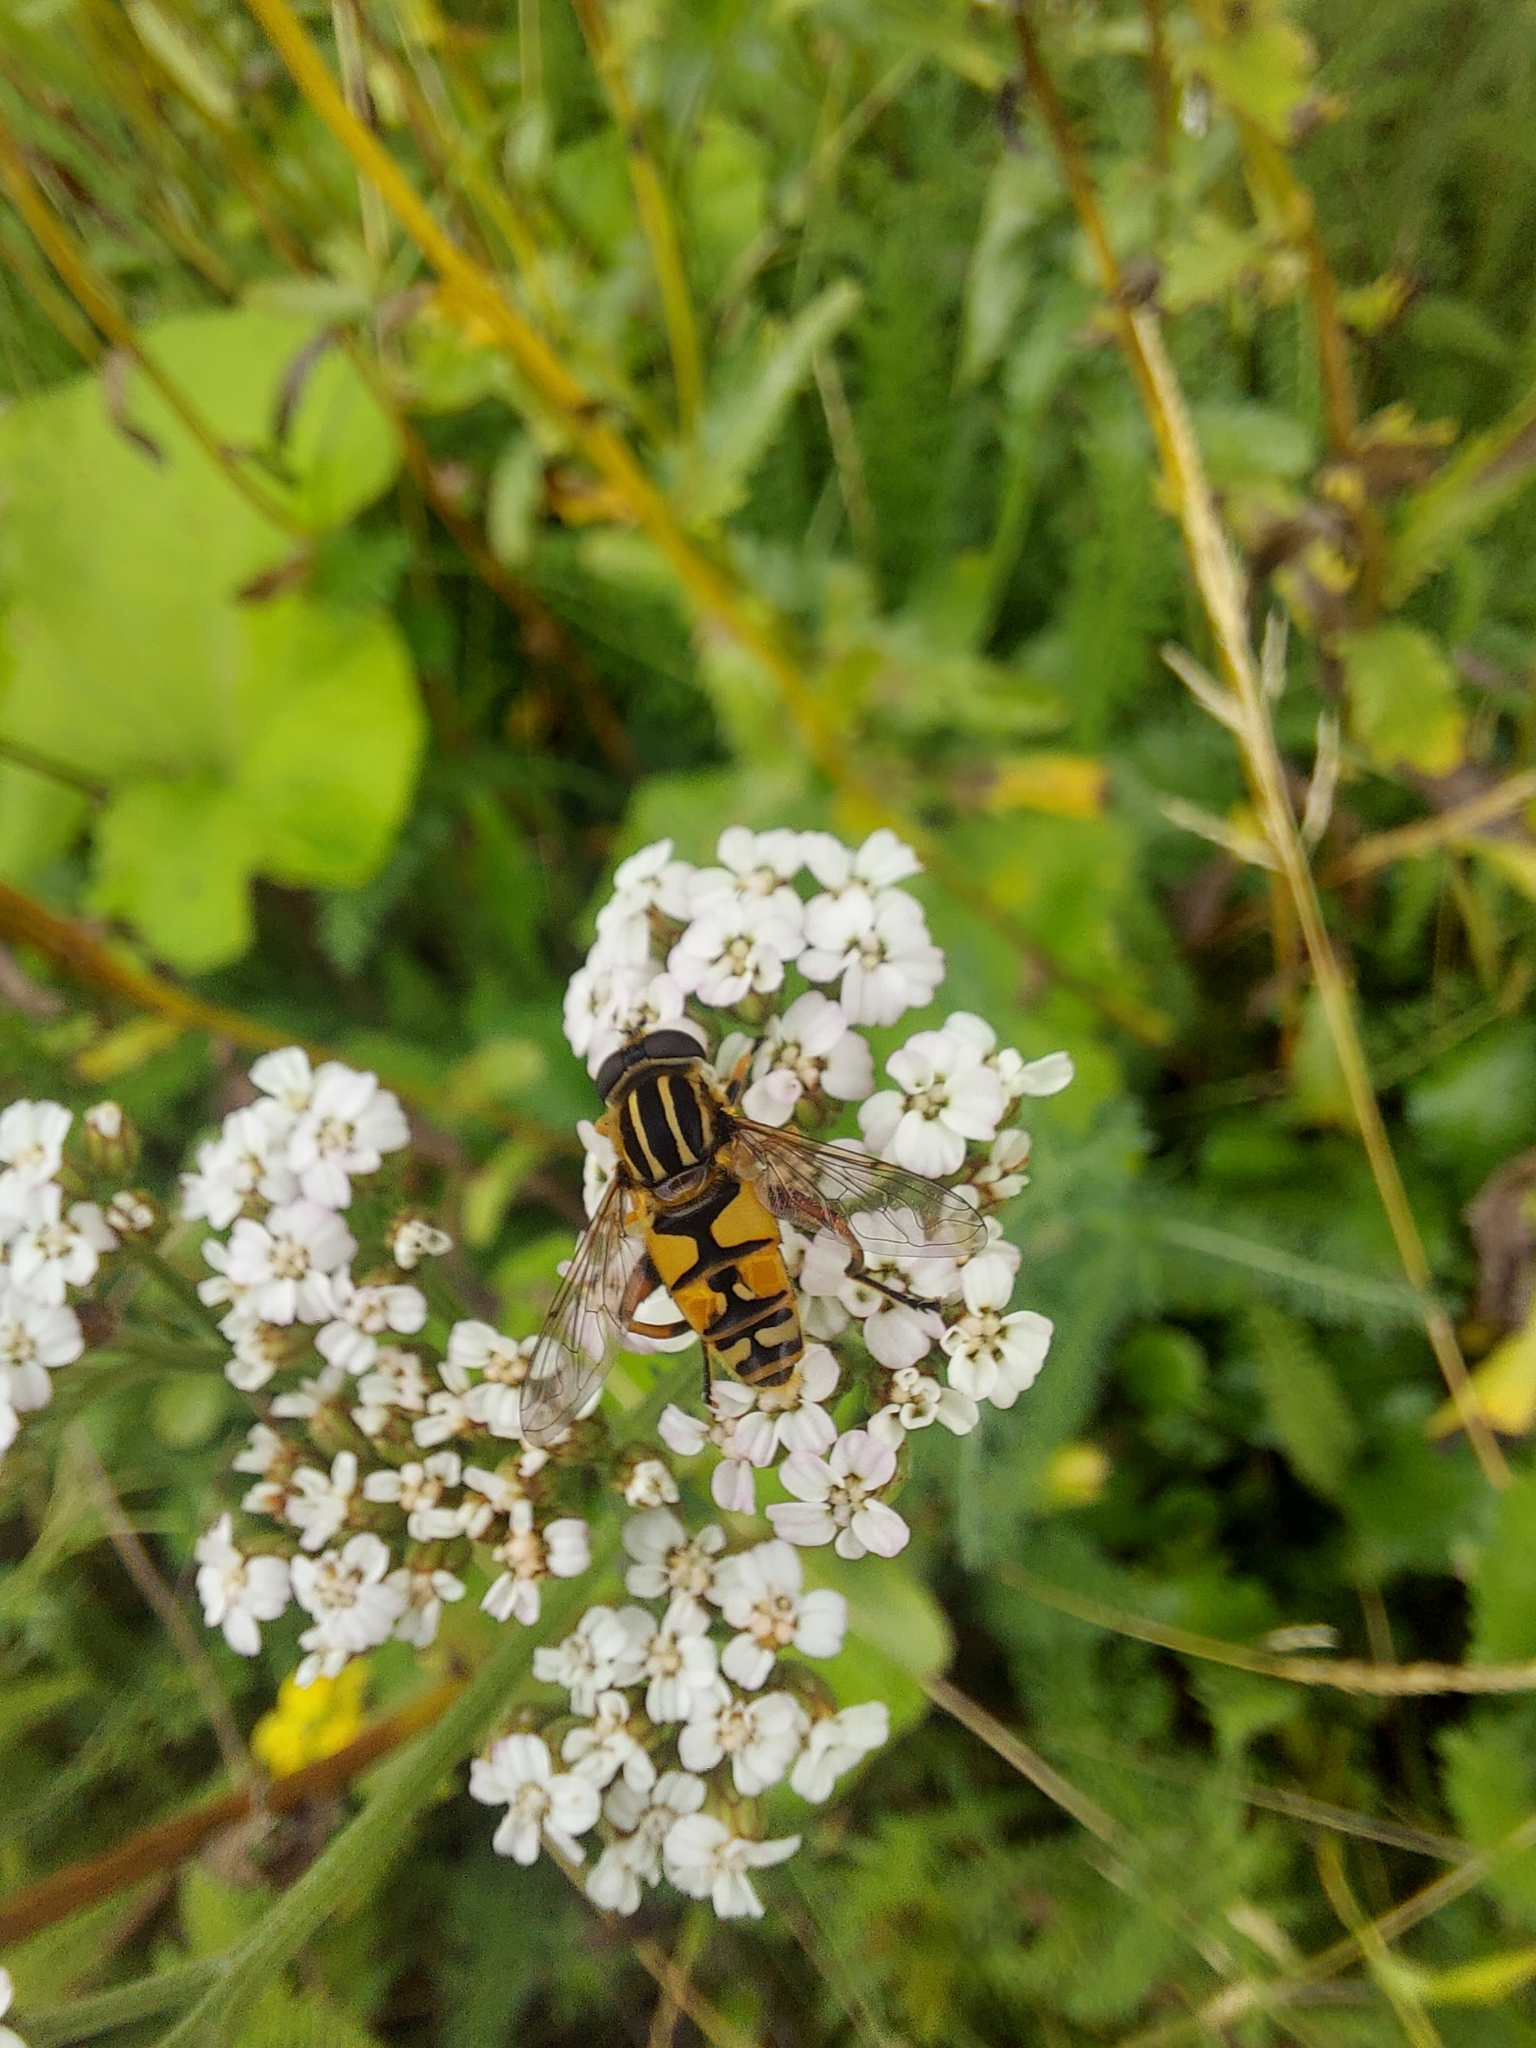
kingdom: Animalia
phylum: Arthropoda
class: Insecta
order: Diptera
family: Syrphidae
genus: Helophilus
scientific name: Helophilus pendulus
